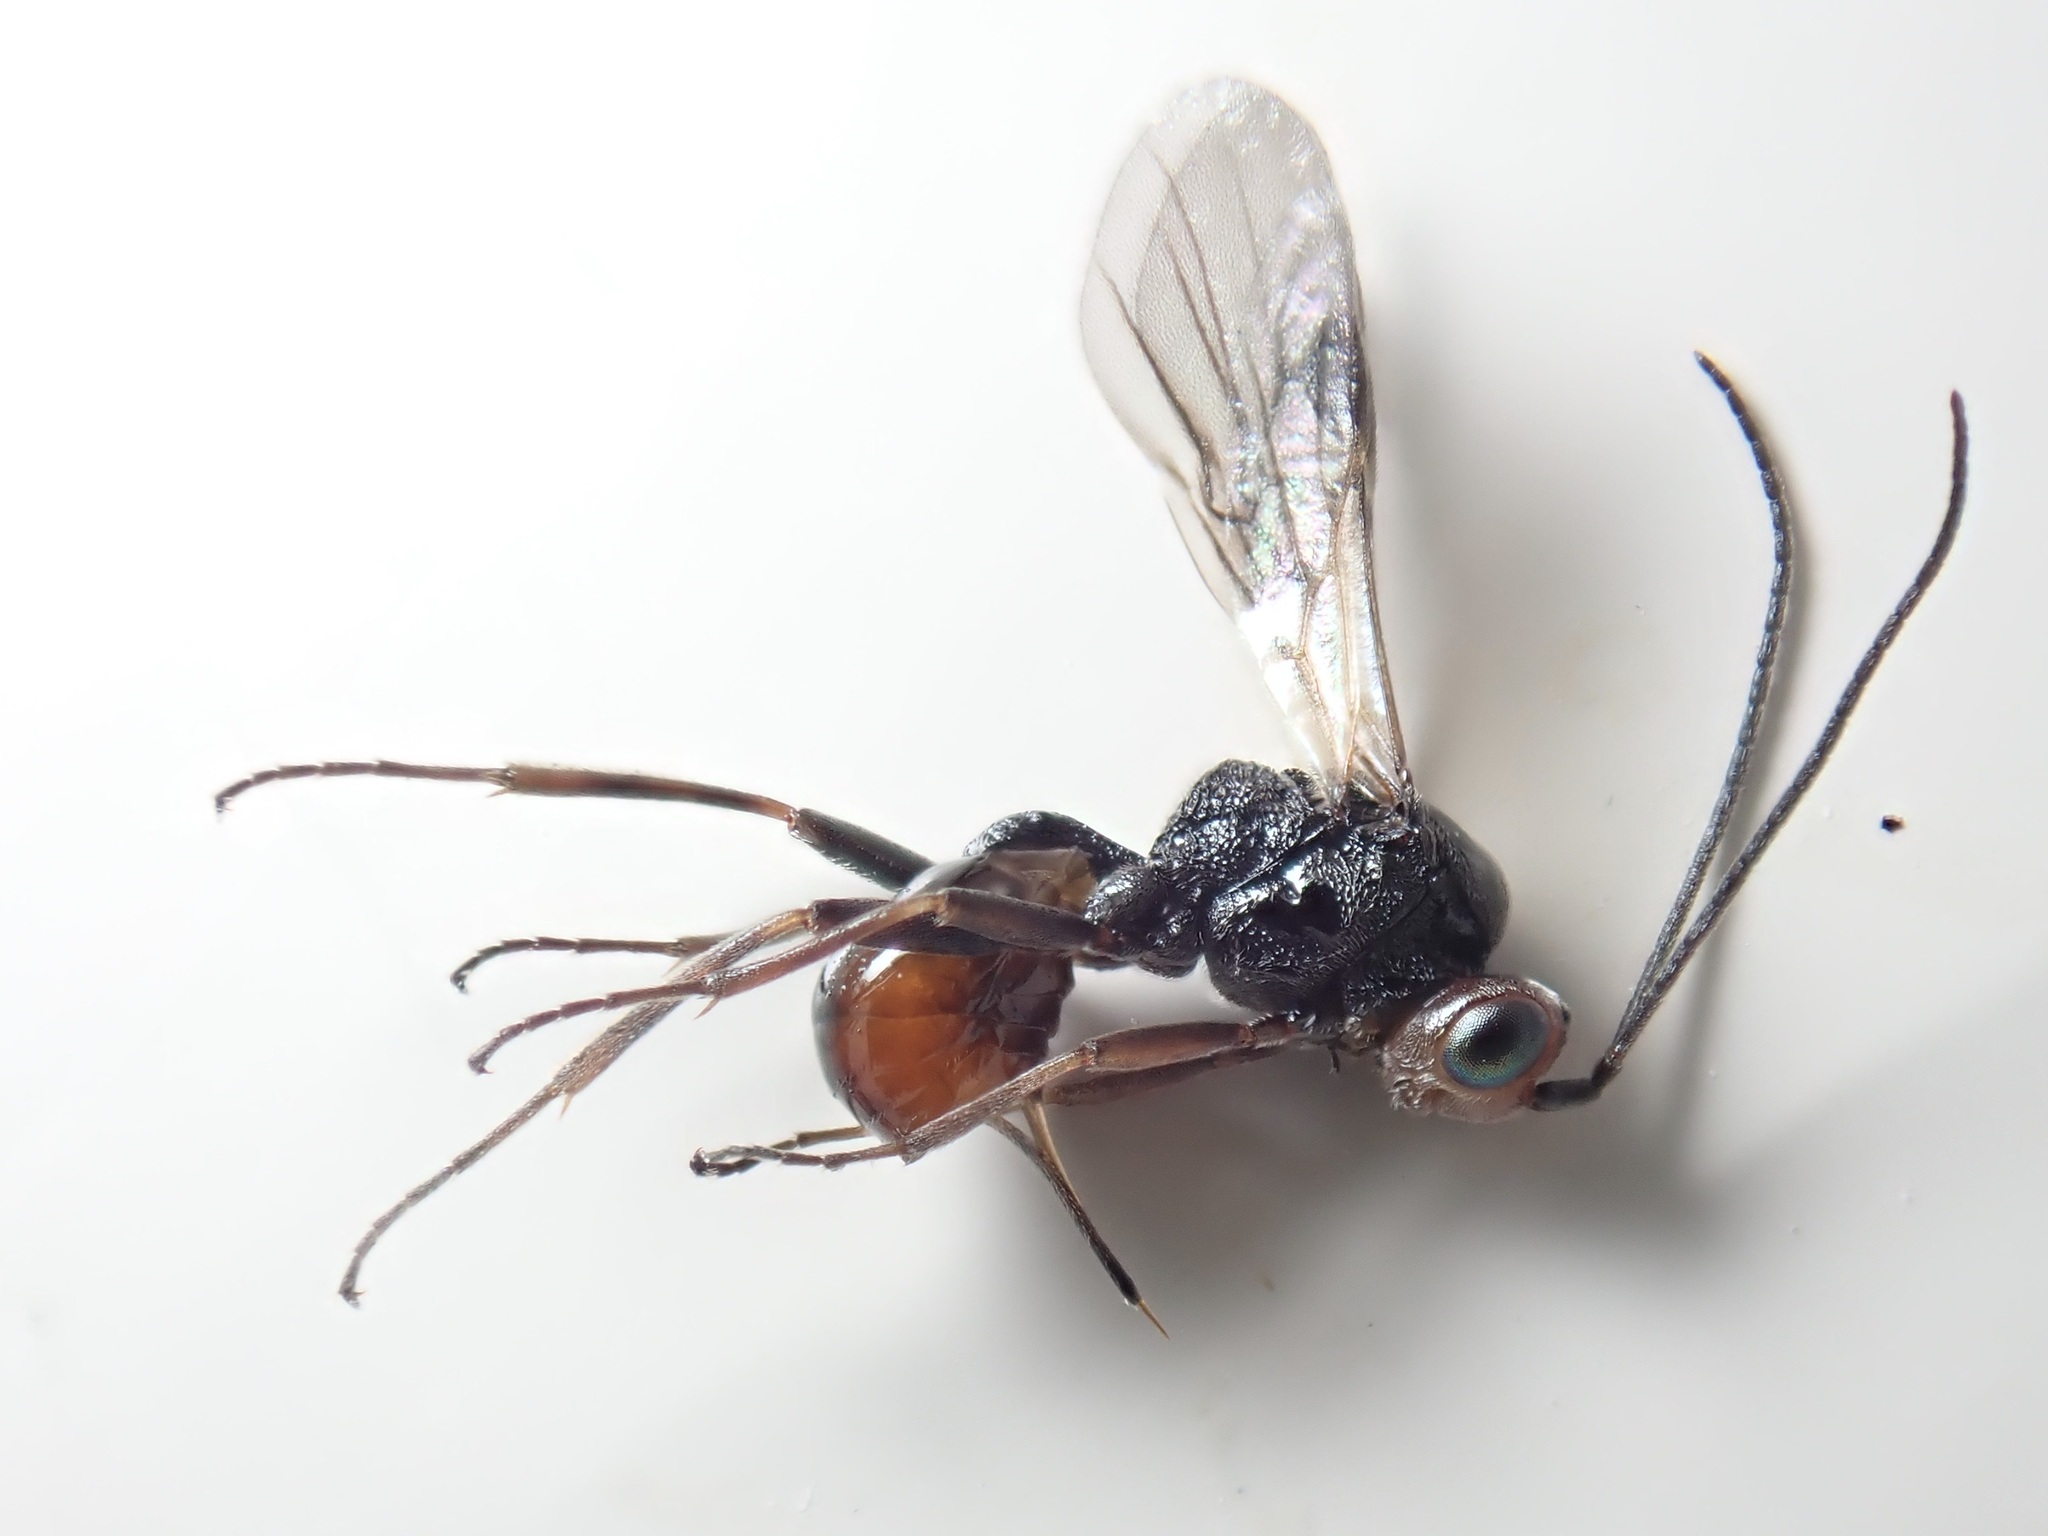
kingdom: Animalia
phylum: Arthropoda
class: Insecta
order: Hymenoptera
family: Braconidae
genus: Dinocampus
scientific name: Dinocampus coccinellae
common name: Braconid wasp
